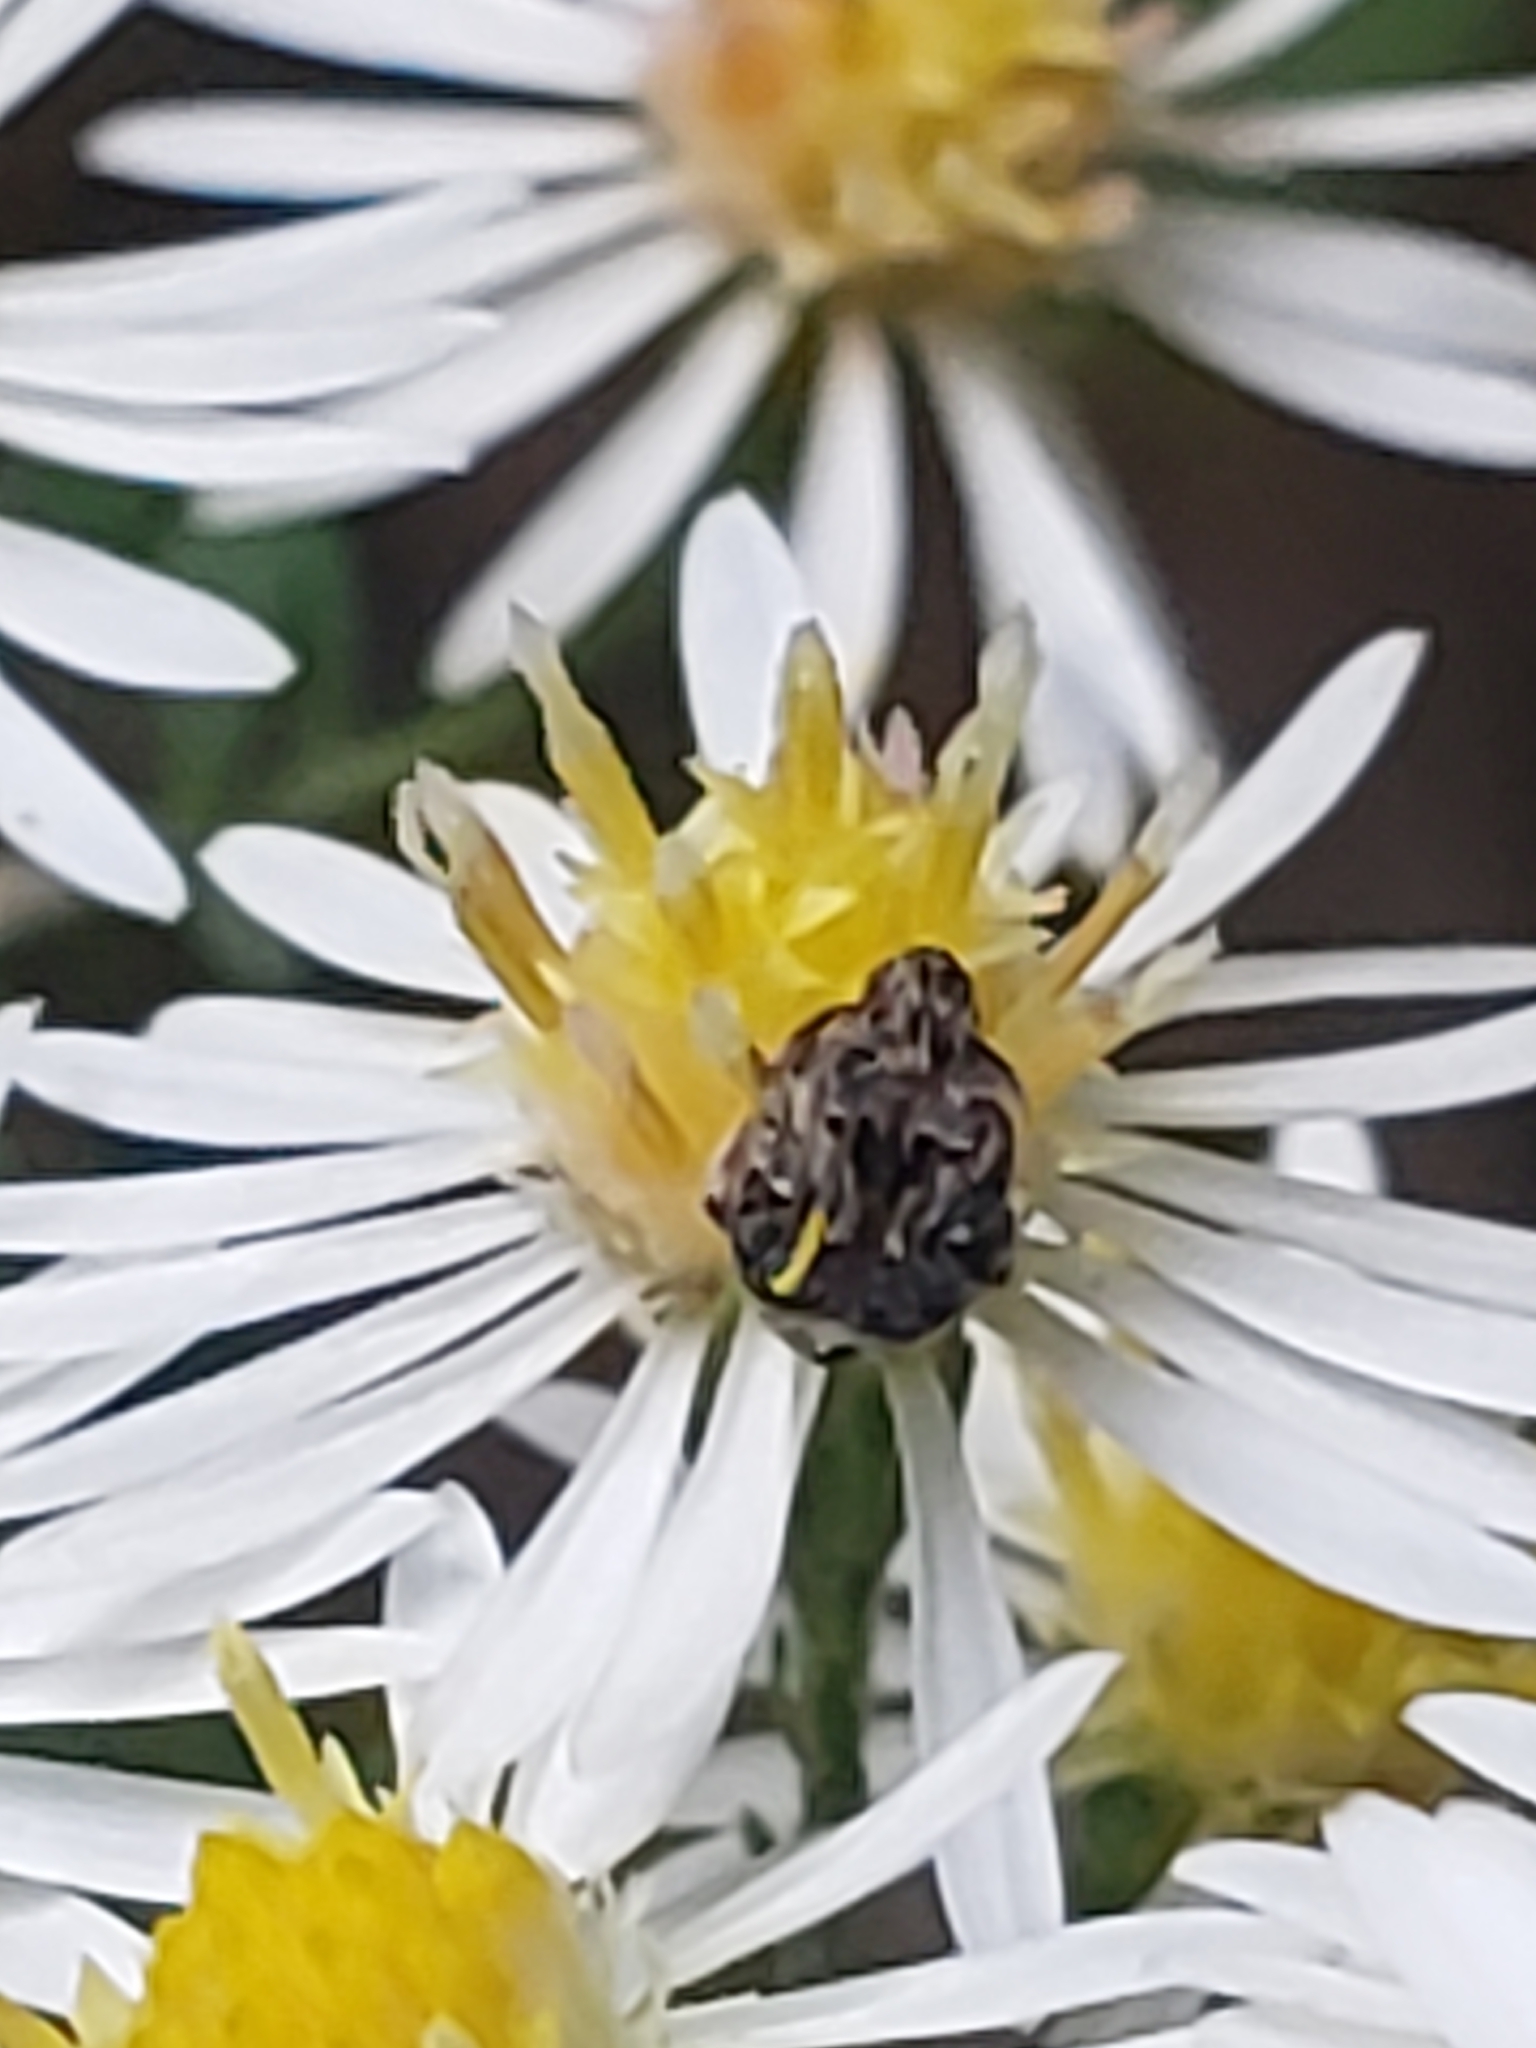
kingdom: Animalia
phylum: Arthropoda
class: Insecta
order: Coleoptera
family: Chrysomelidae
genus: Gibbobruchus
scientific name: Gibbobruchus mimus
